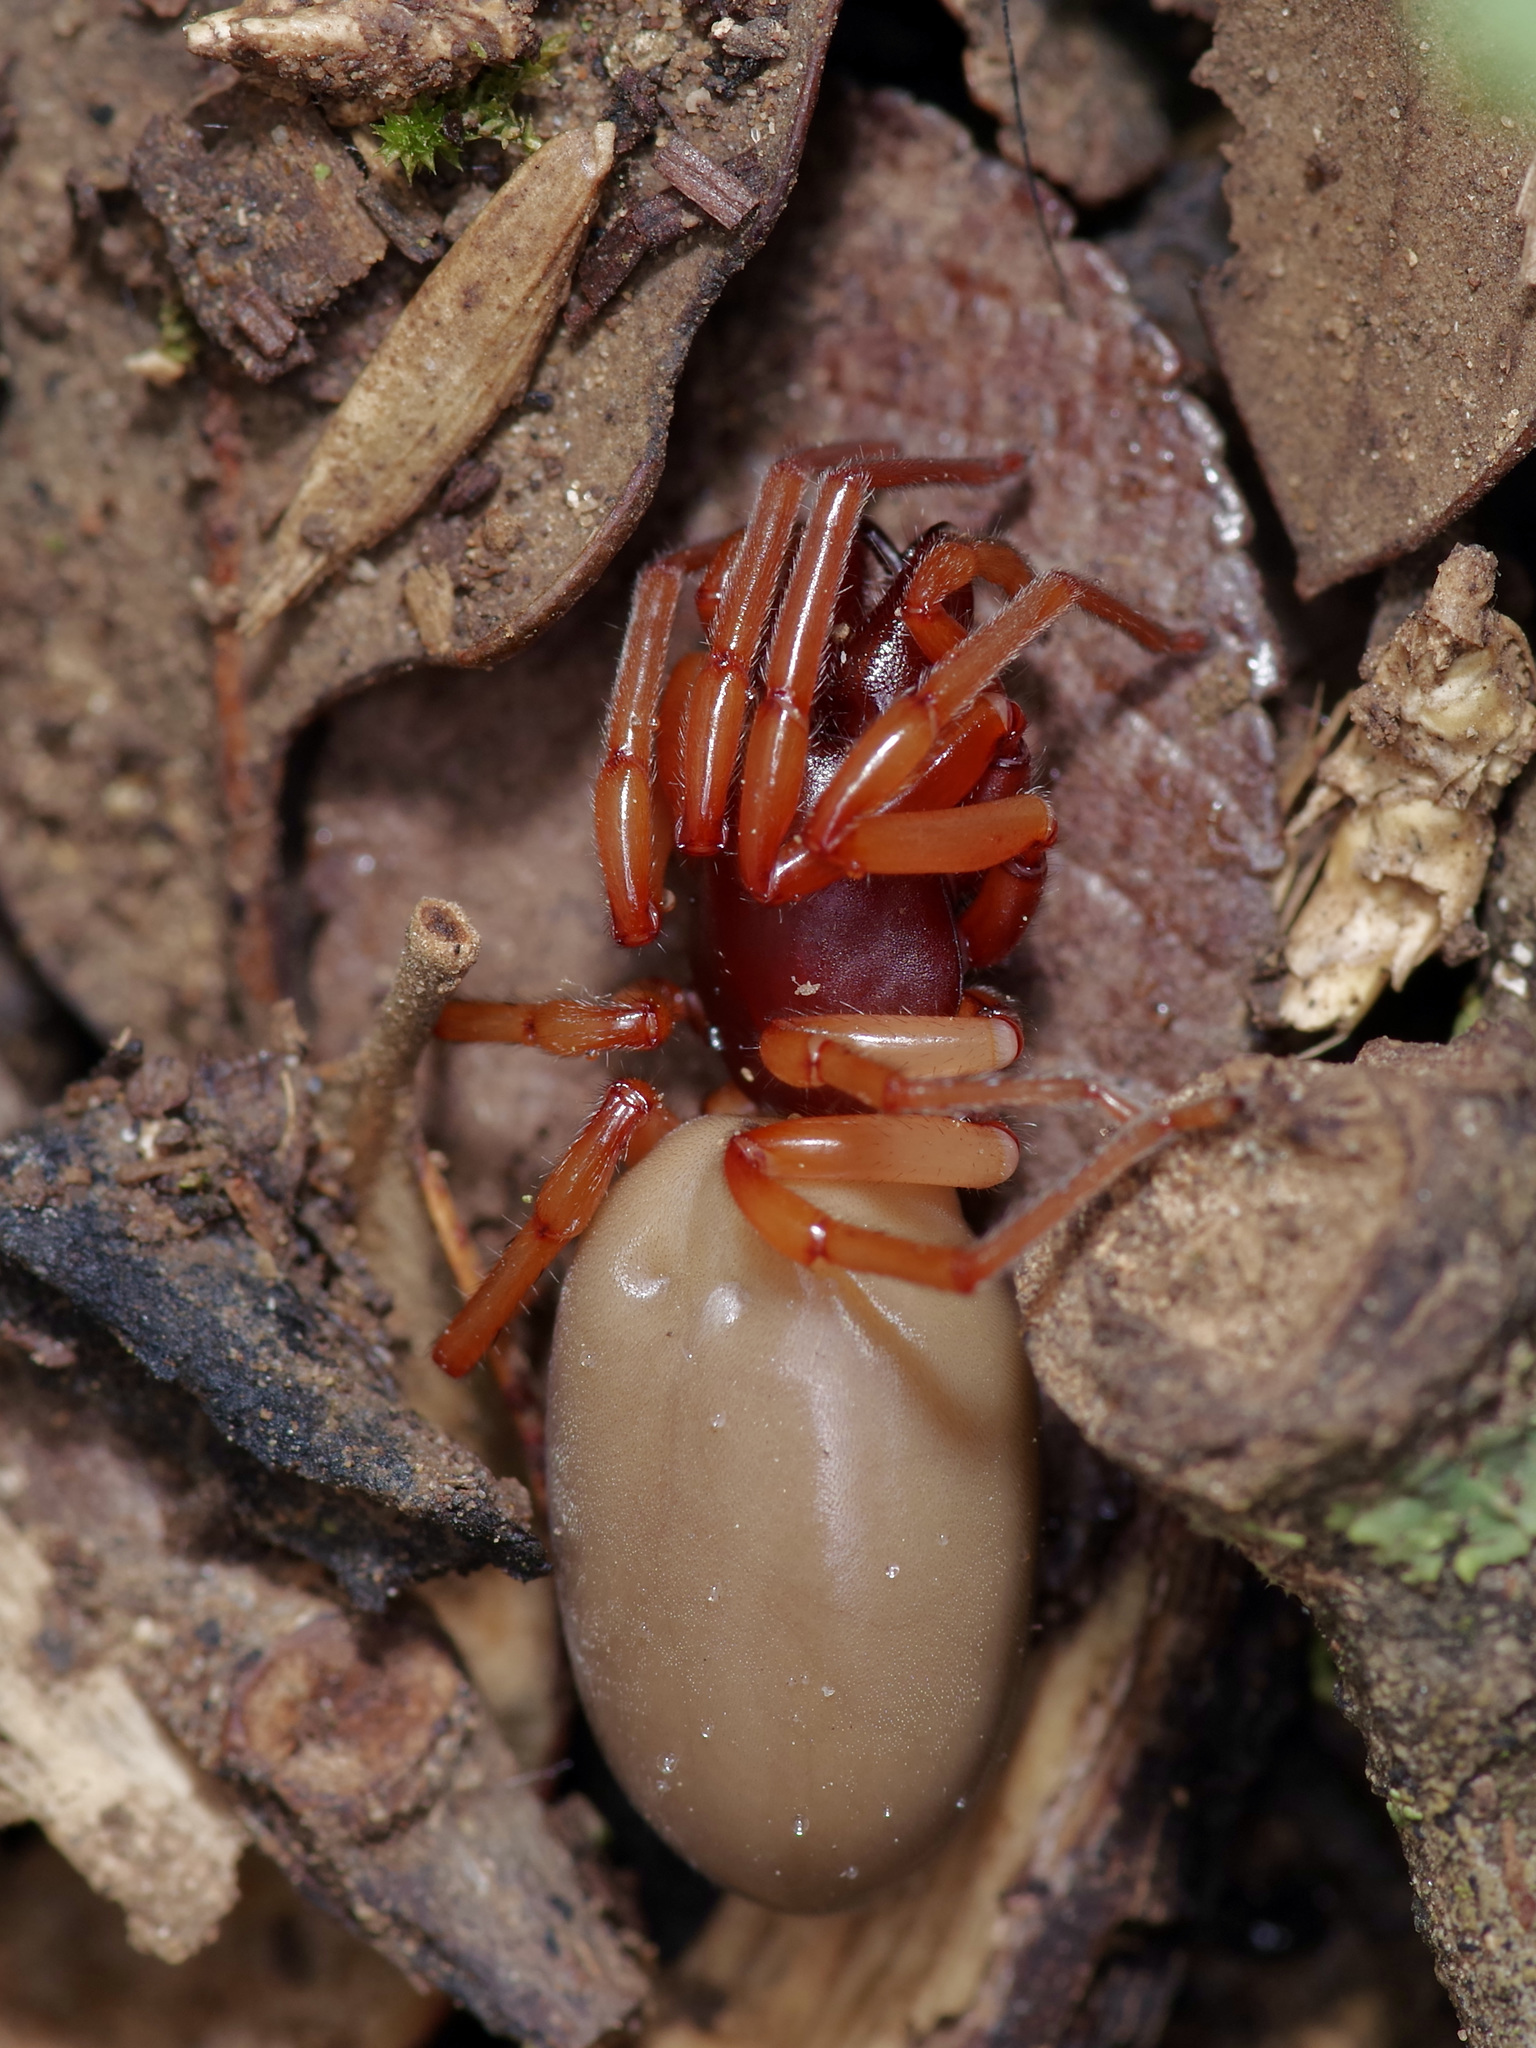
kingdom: Animalia
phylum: Arthropoda
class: Arachnida
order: Araneae
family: Dysderidae
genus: Dysdera
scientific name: Dysdera crocata
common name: Woodlouse spider
